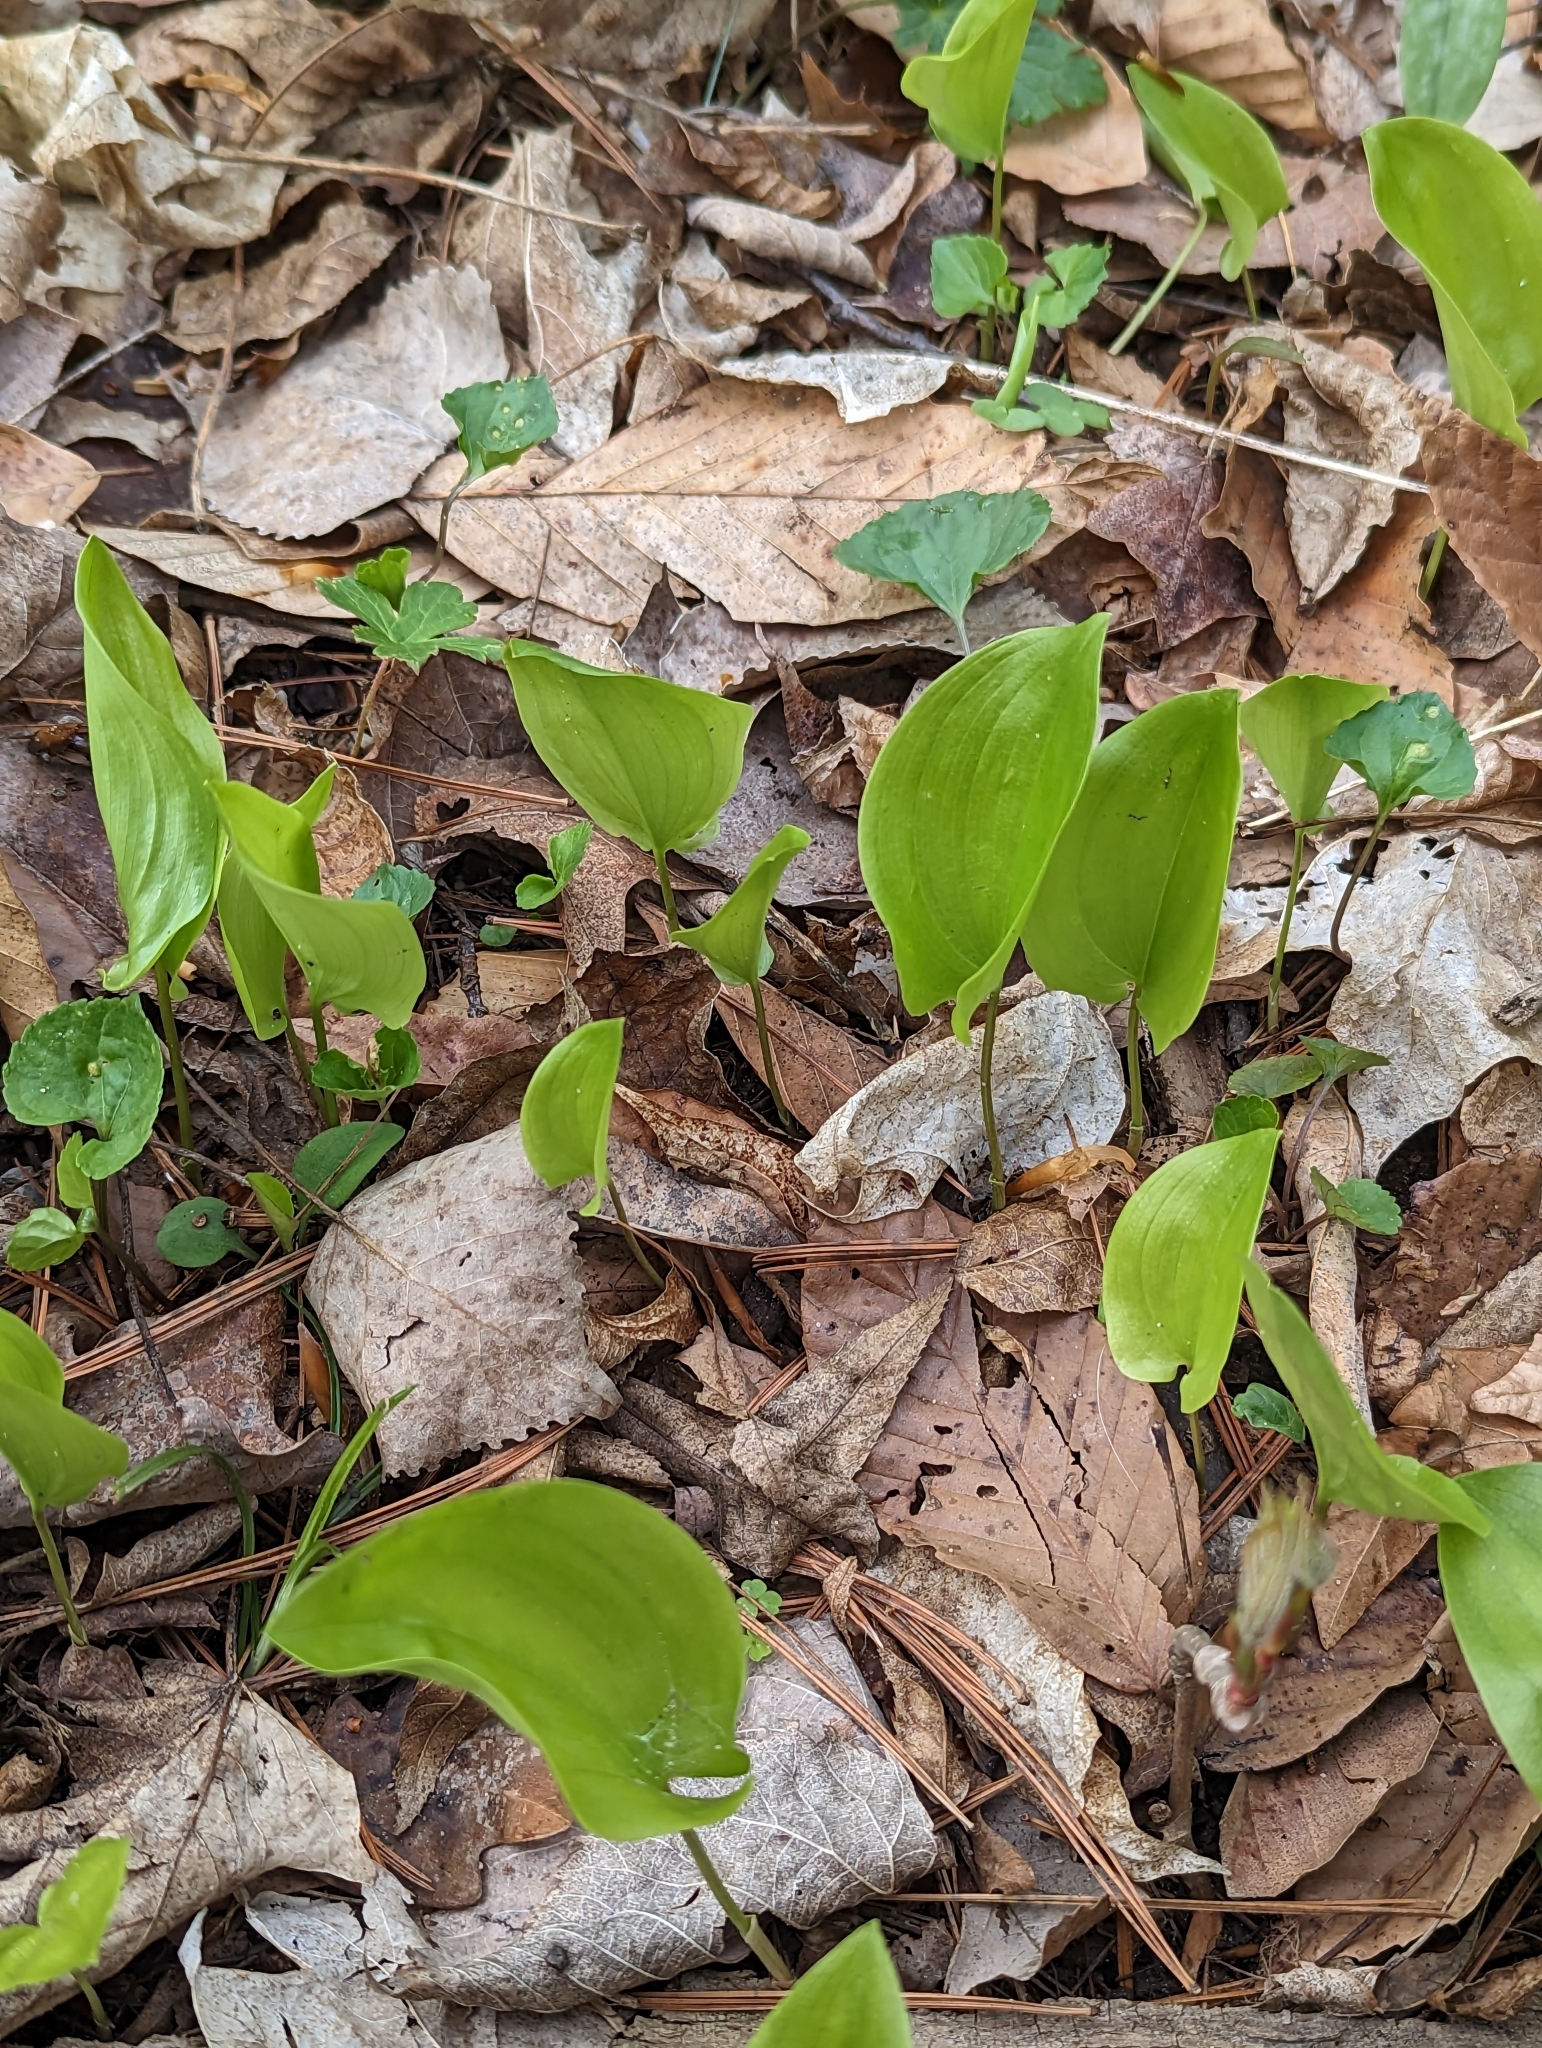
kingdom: Plantae
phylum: Tracheophyta
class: Liliopsida
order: Asparagales
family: Asparagaceae
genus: Maianthemum
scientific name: Maianthemum canadense
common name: False lily-of-the-valley
